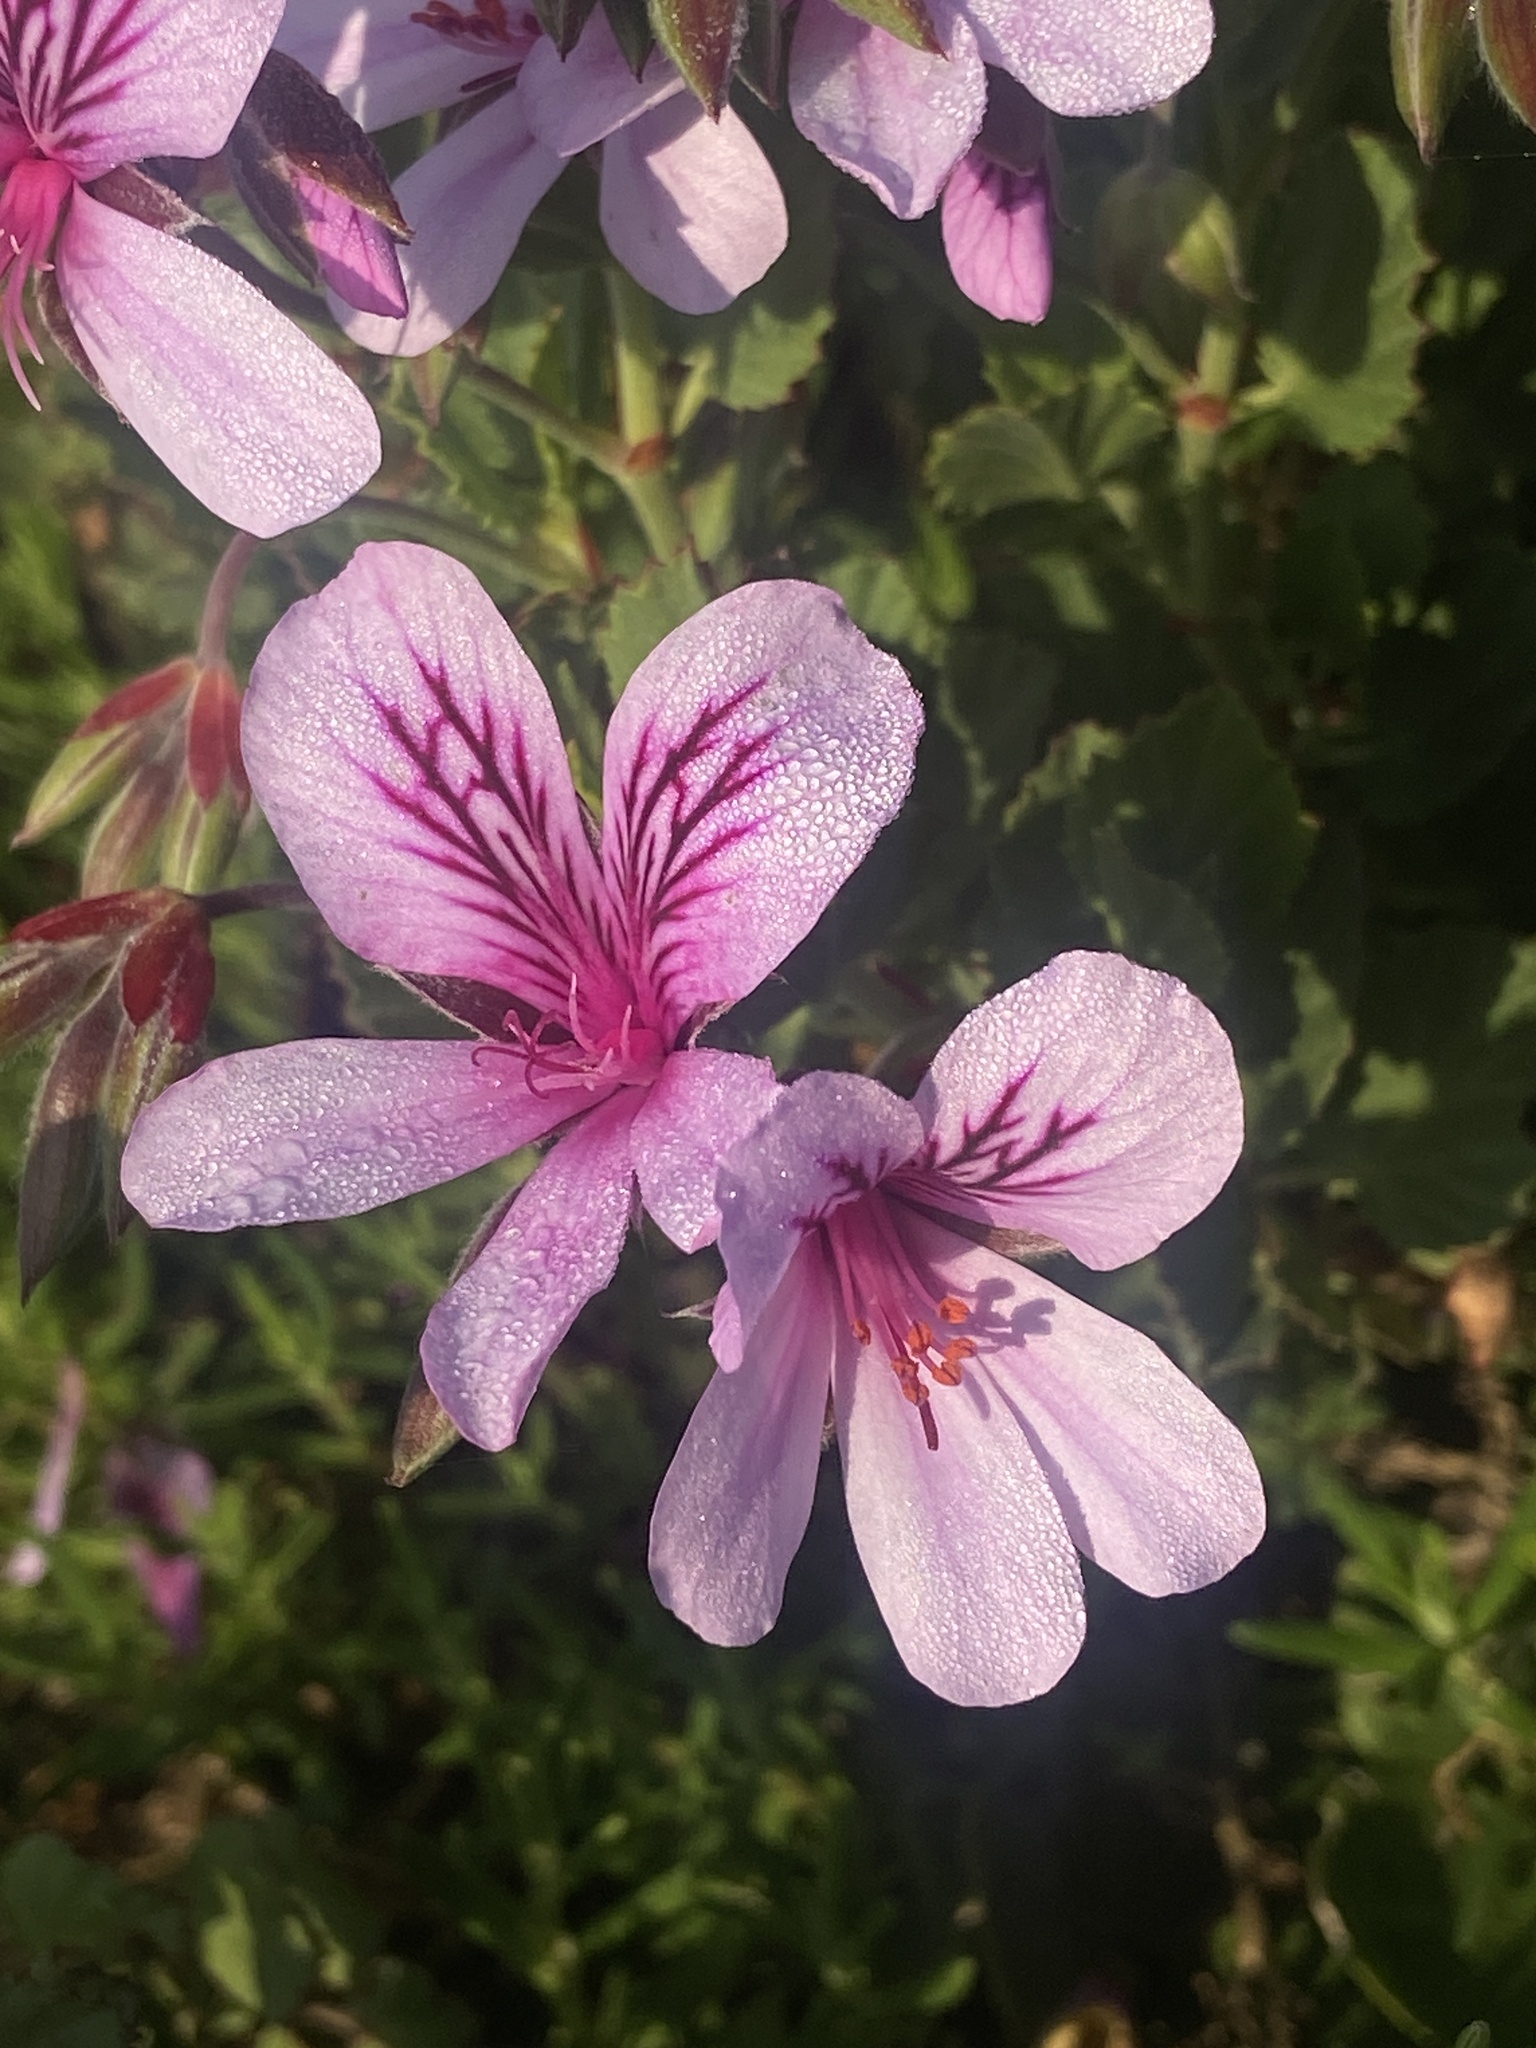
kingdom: Plantae
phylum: Tracheophyta
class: Magnoliopsida
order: Geraniales
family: Geraniaceae
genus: Pelargonium
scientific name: Pelargonium betulinum
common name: Birch-leaf pelargonium
